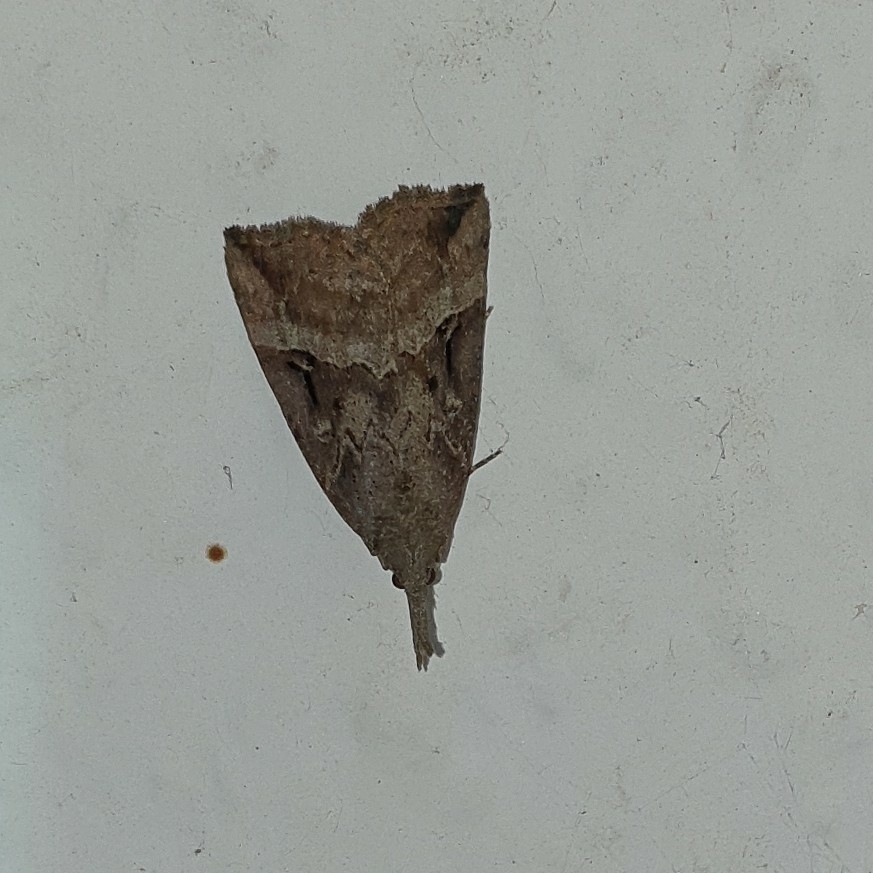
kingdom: Animalia
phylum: Arthropoda
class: Insecta
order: Lepidoptera
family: Erebidae
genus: Hypena
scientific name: Hypena rostralis
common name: Buttoned snout
